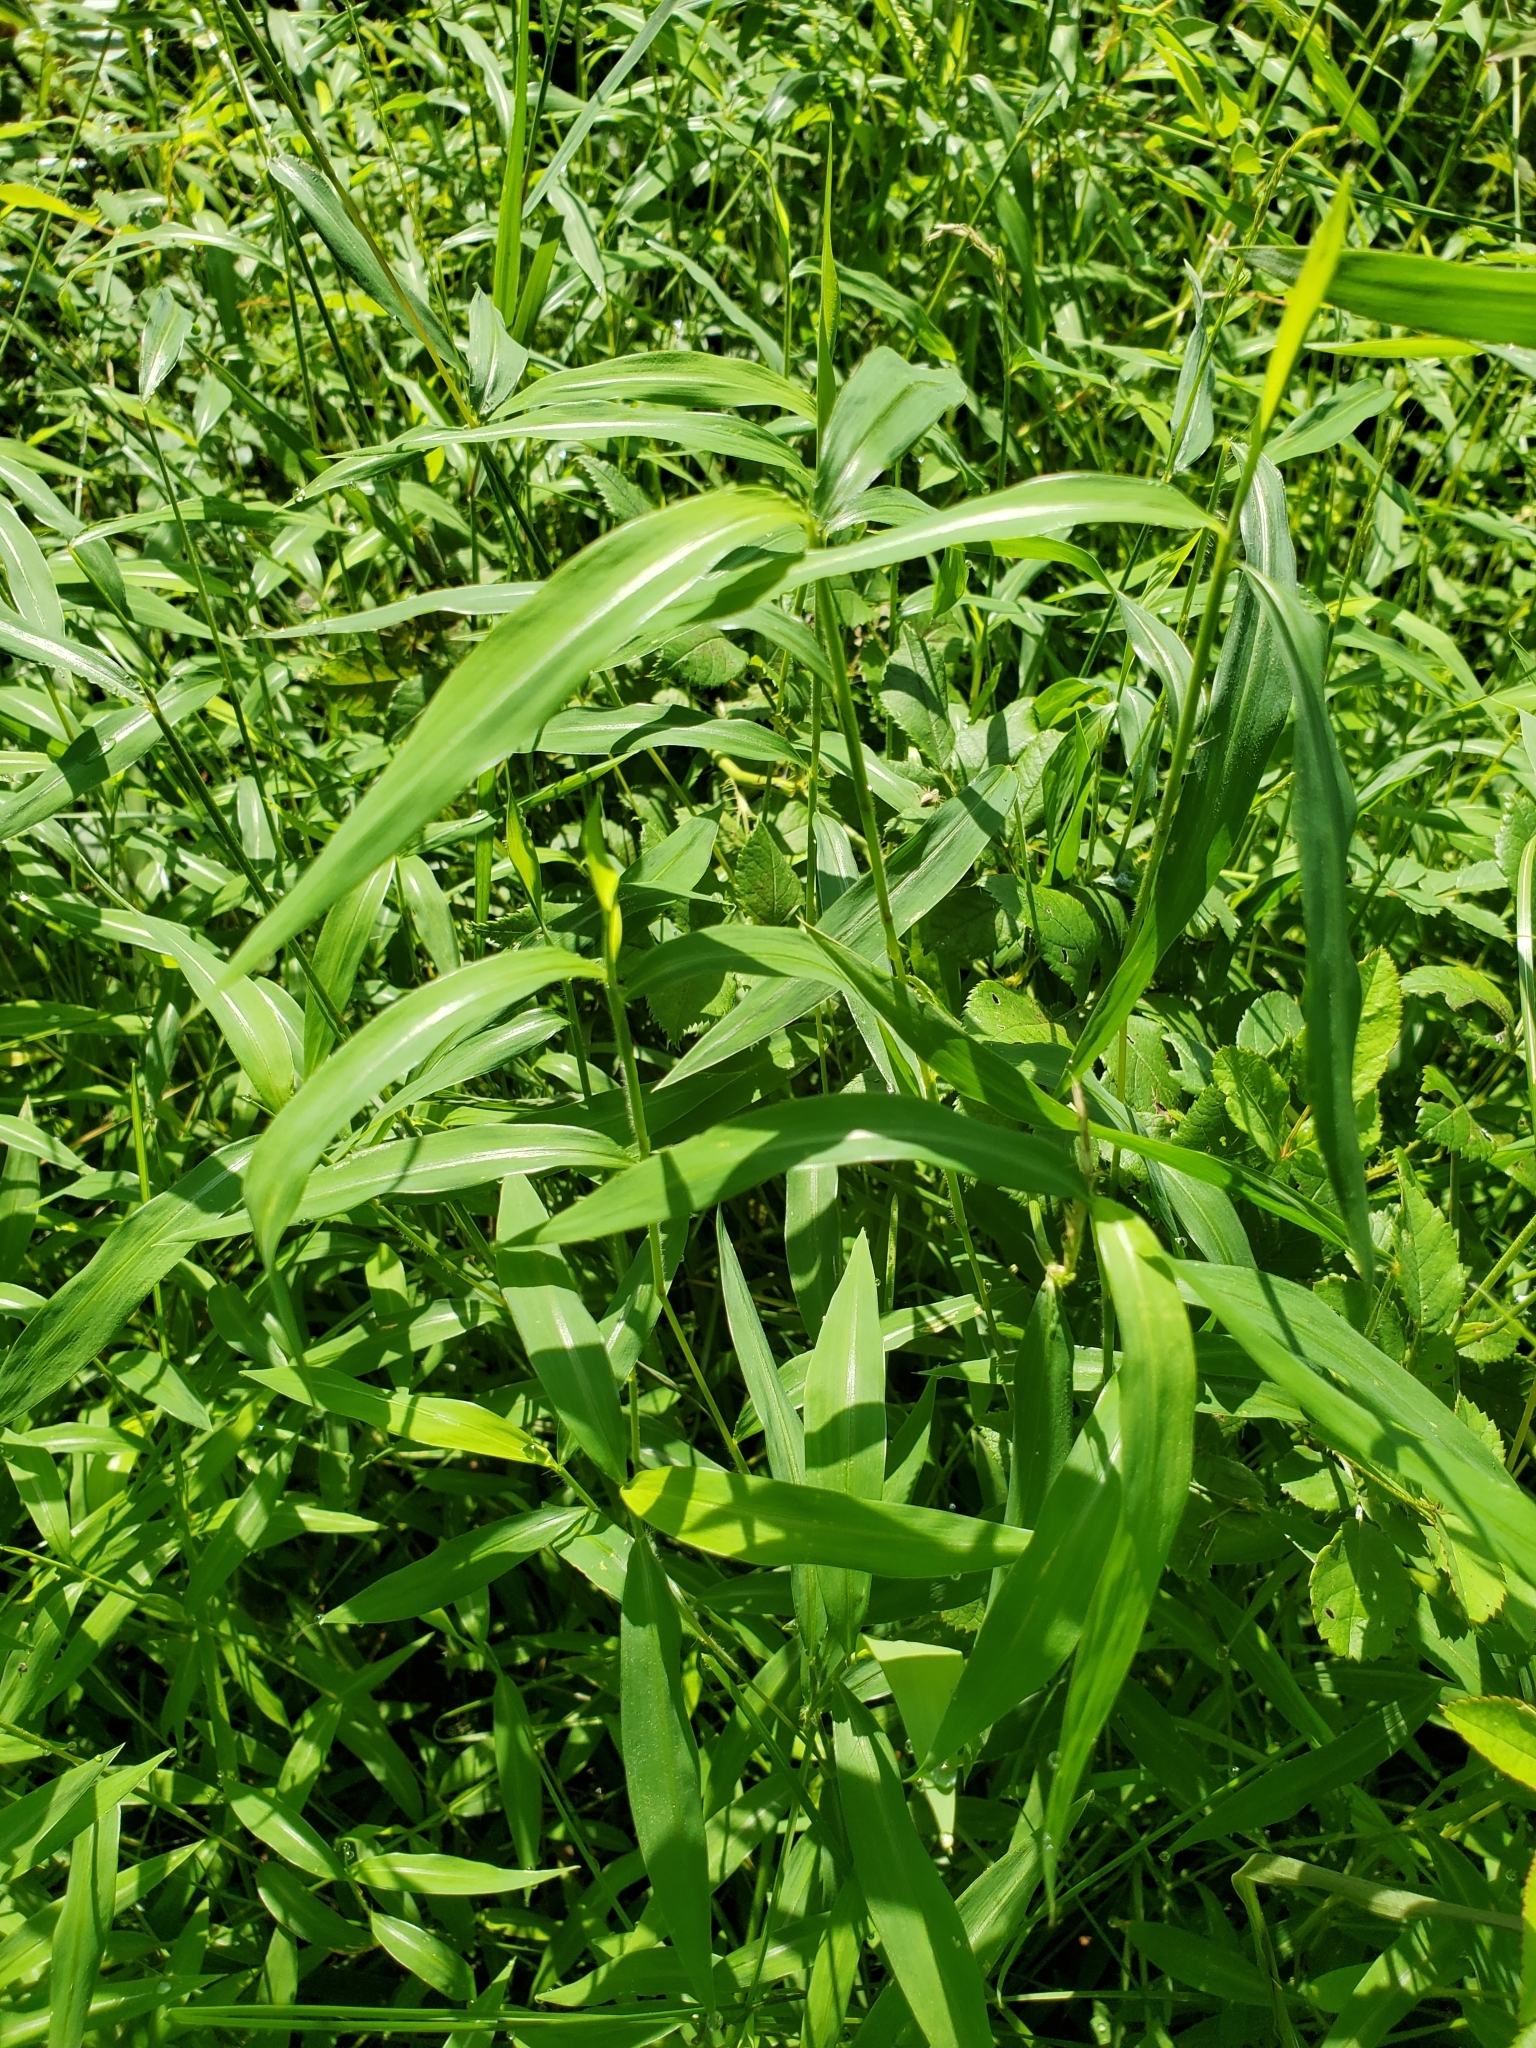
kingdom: Plantae
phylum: Tracheophyta
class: Liliopsida
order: Poales
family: Poaceae
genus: Microstegium
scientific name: Microstegium vimineum
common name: Japanese stiltgrass
